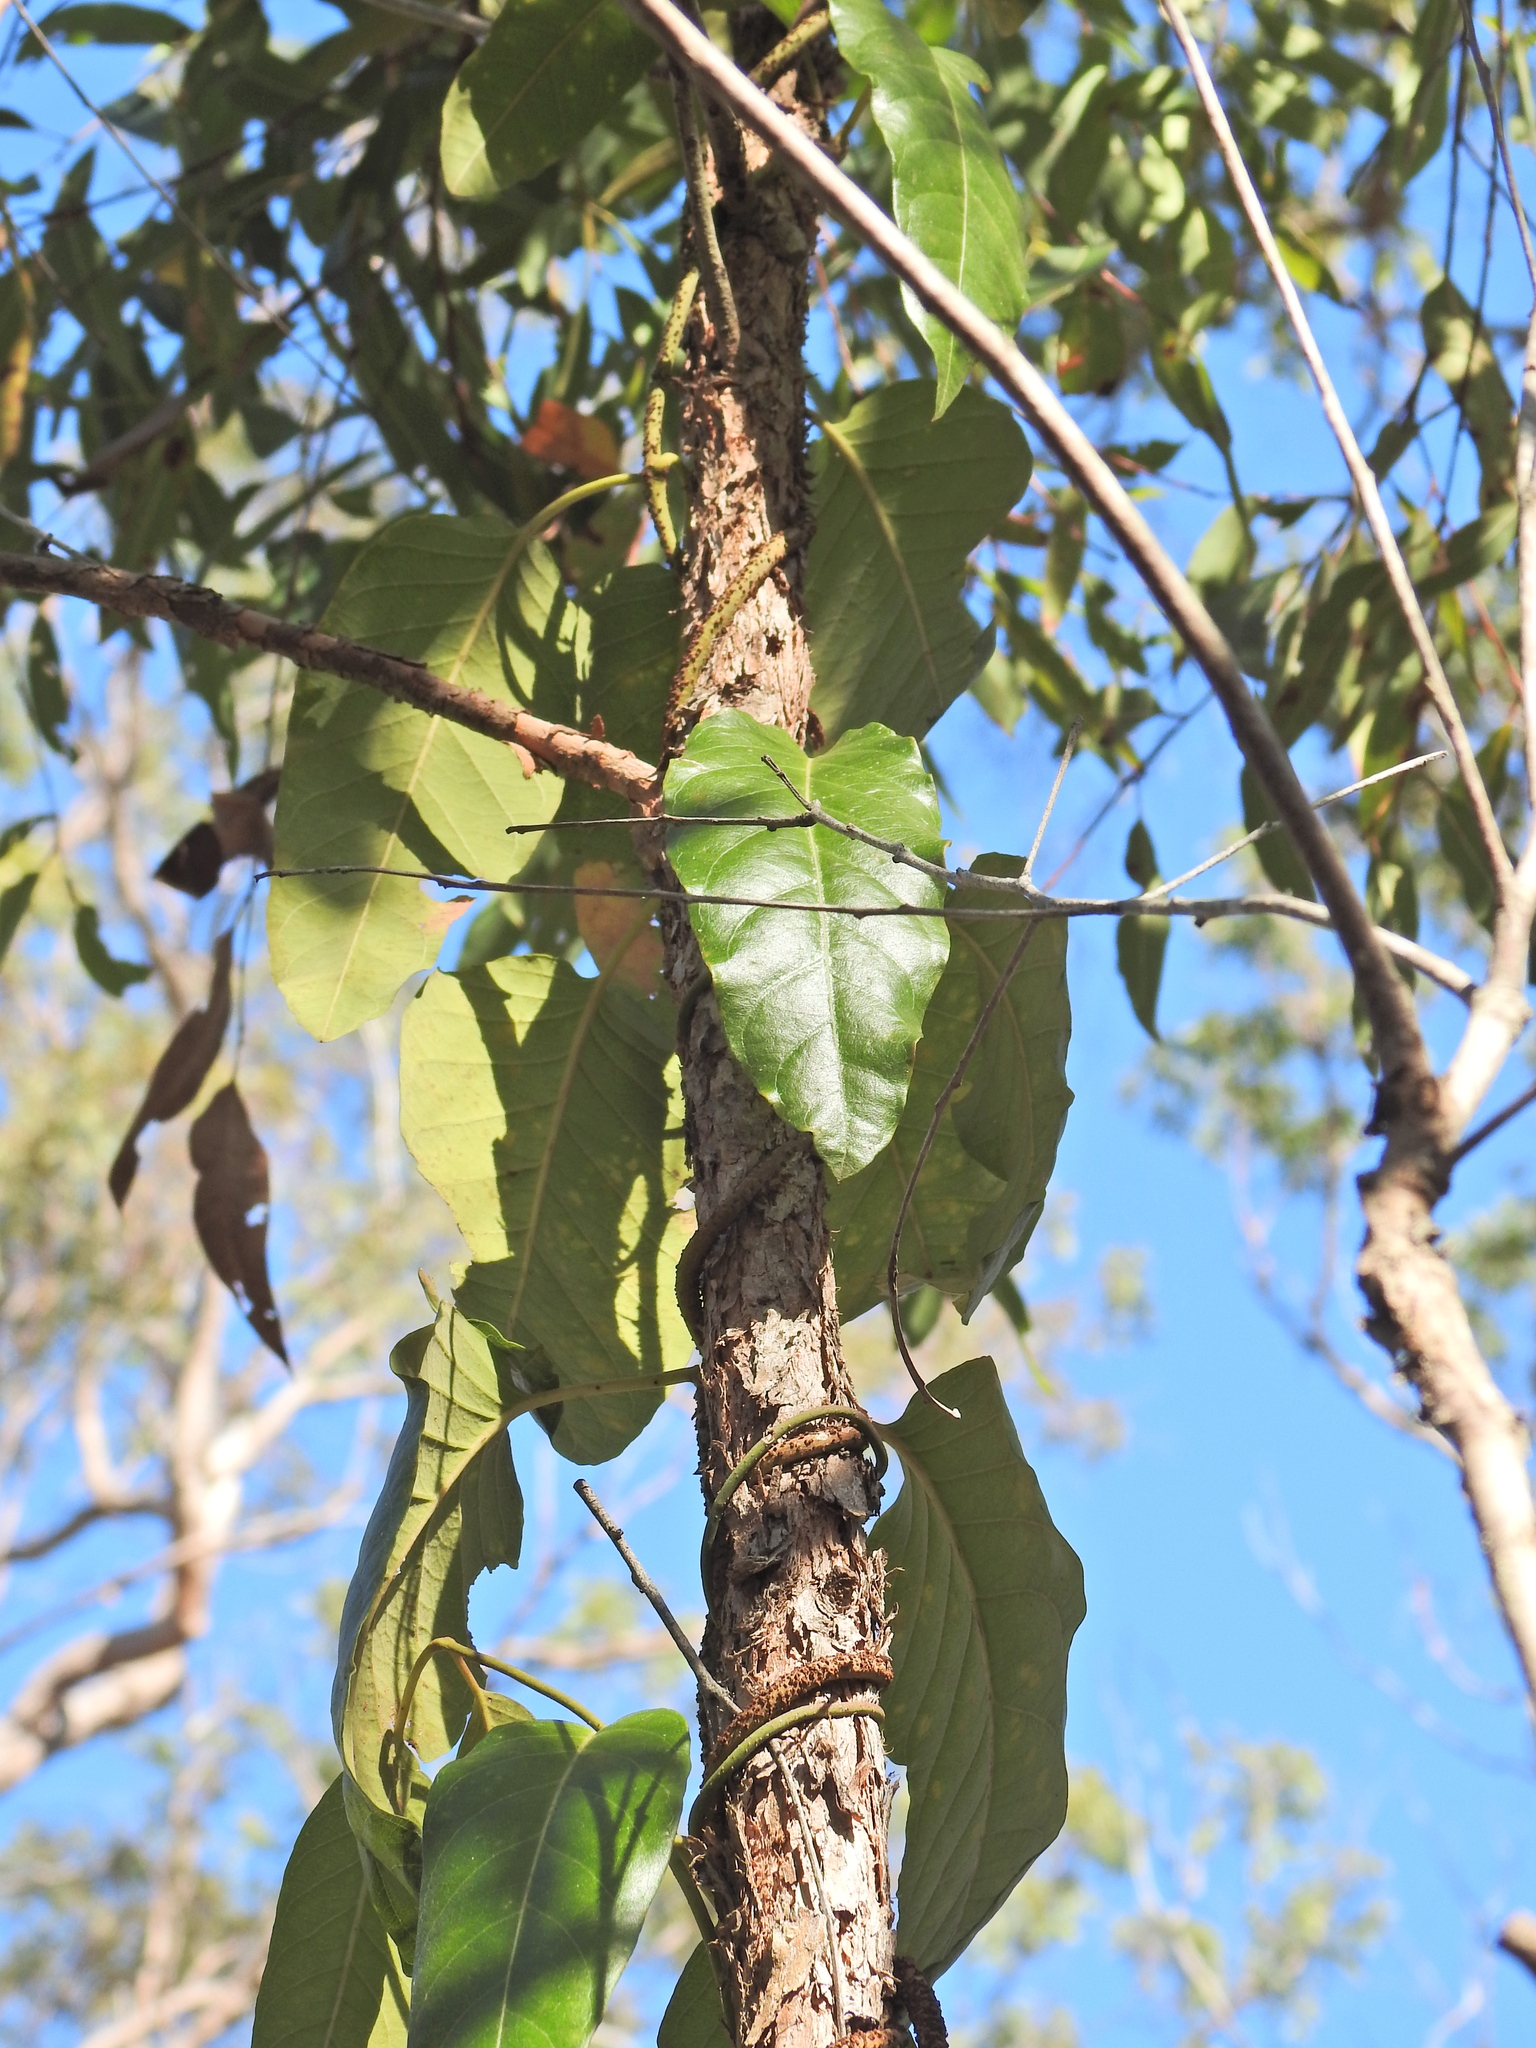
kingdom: Plantae
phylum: Tracheophyta
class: Magnoliopsida
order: Gentianales
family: Apocynaceae
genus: Parsonsia
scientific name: Parsonsia brisbanensis
